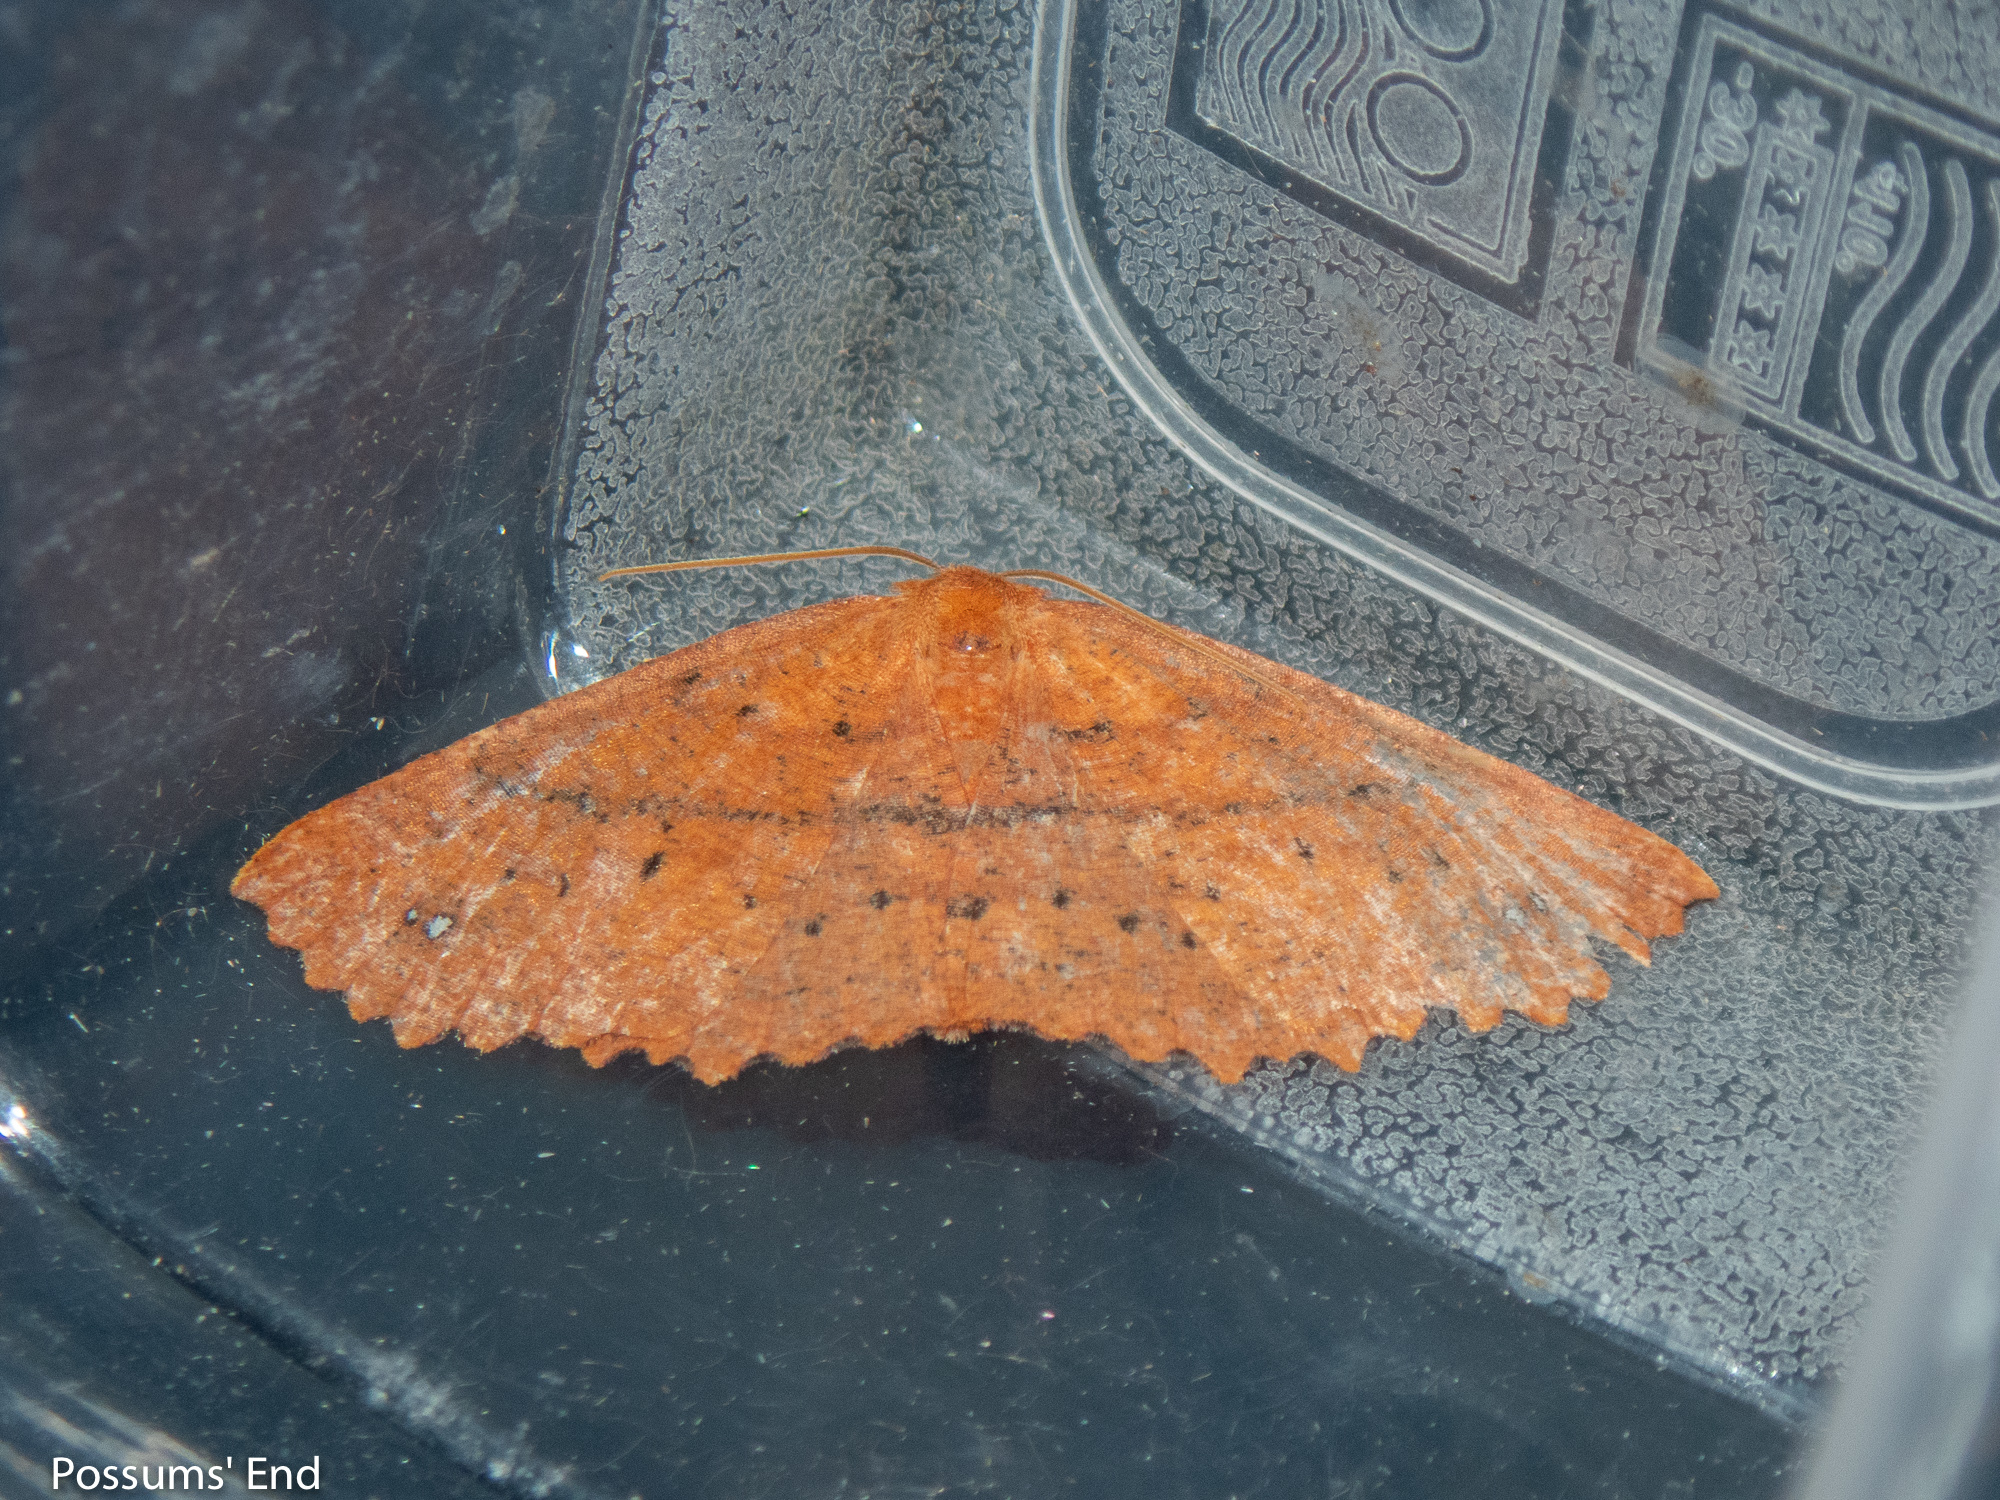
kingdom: Animalia
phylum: Arthropoda
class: Insecta
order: Lepidoptera
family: Geometridae
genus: Xyridacma
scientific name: Xyridacma alectoraria
